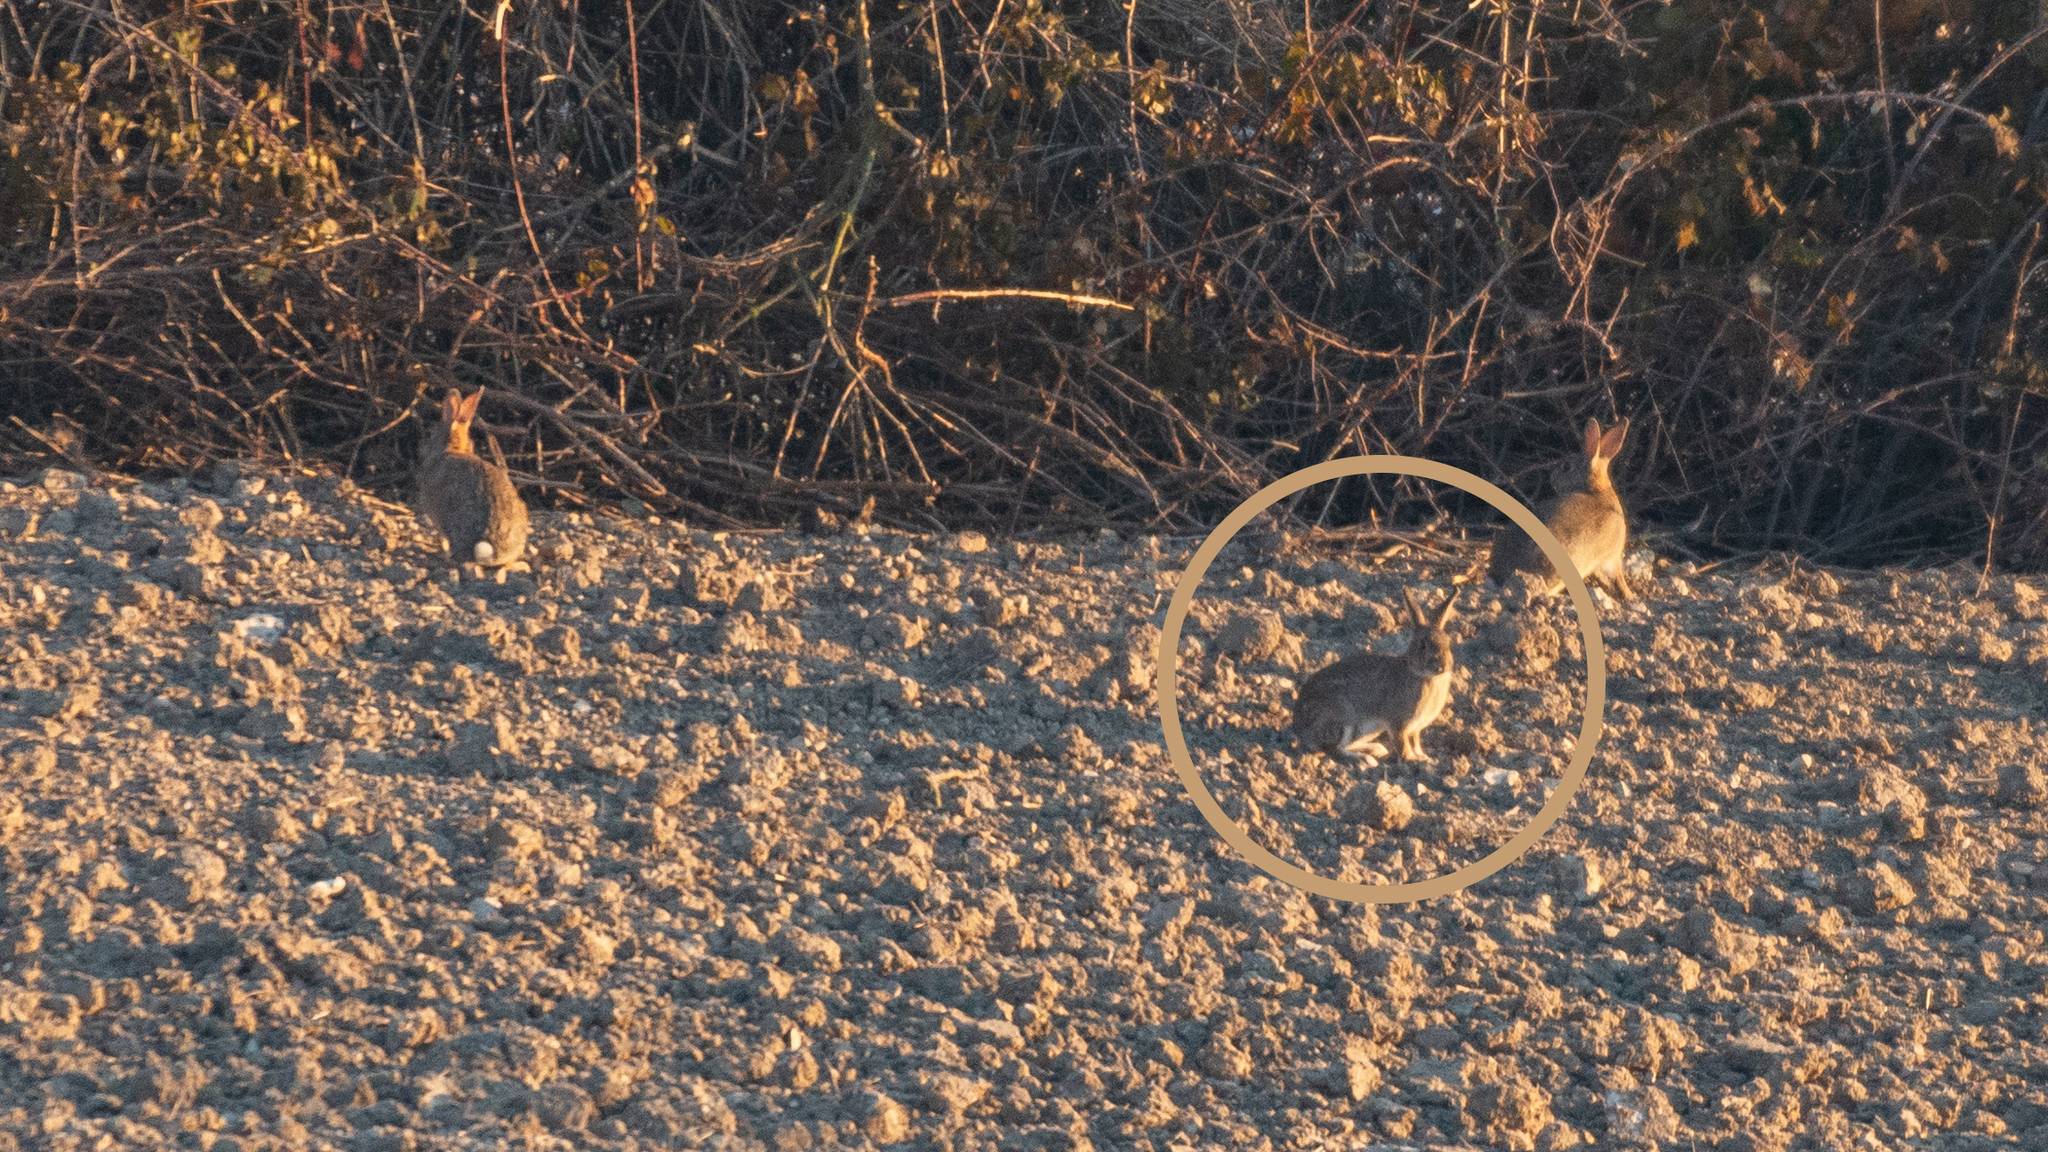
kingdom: Animalia
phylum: Chordata
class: Mammalia
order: Lagomorpha
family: Leporidae
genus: Oryctolagus
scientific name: Oryctolagus cuniculus
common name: European rabbit
